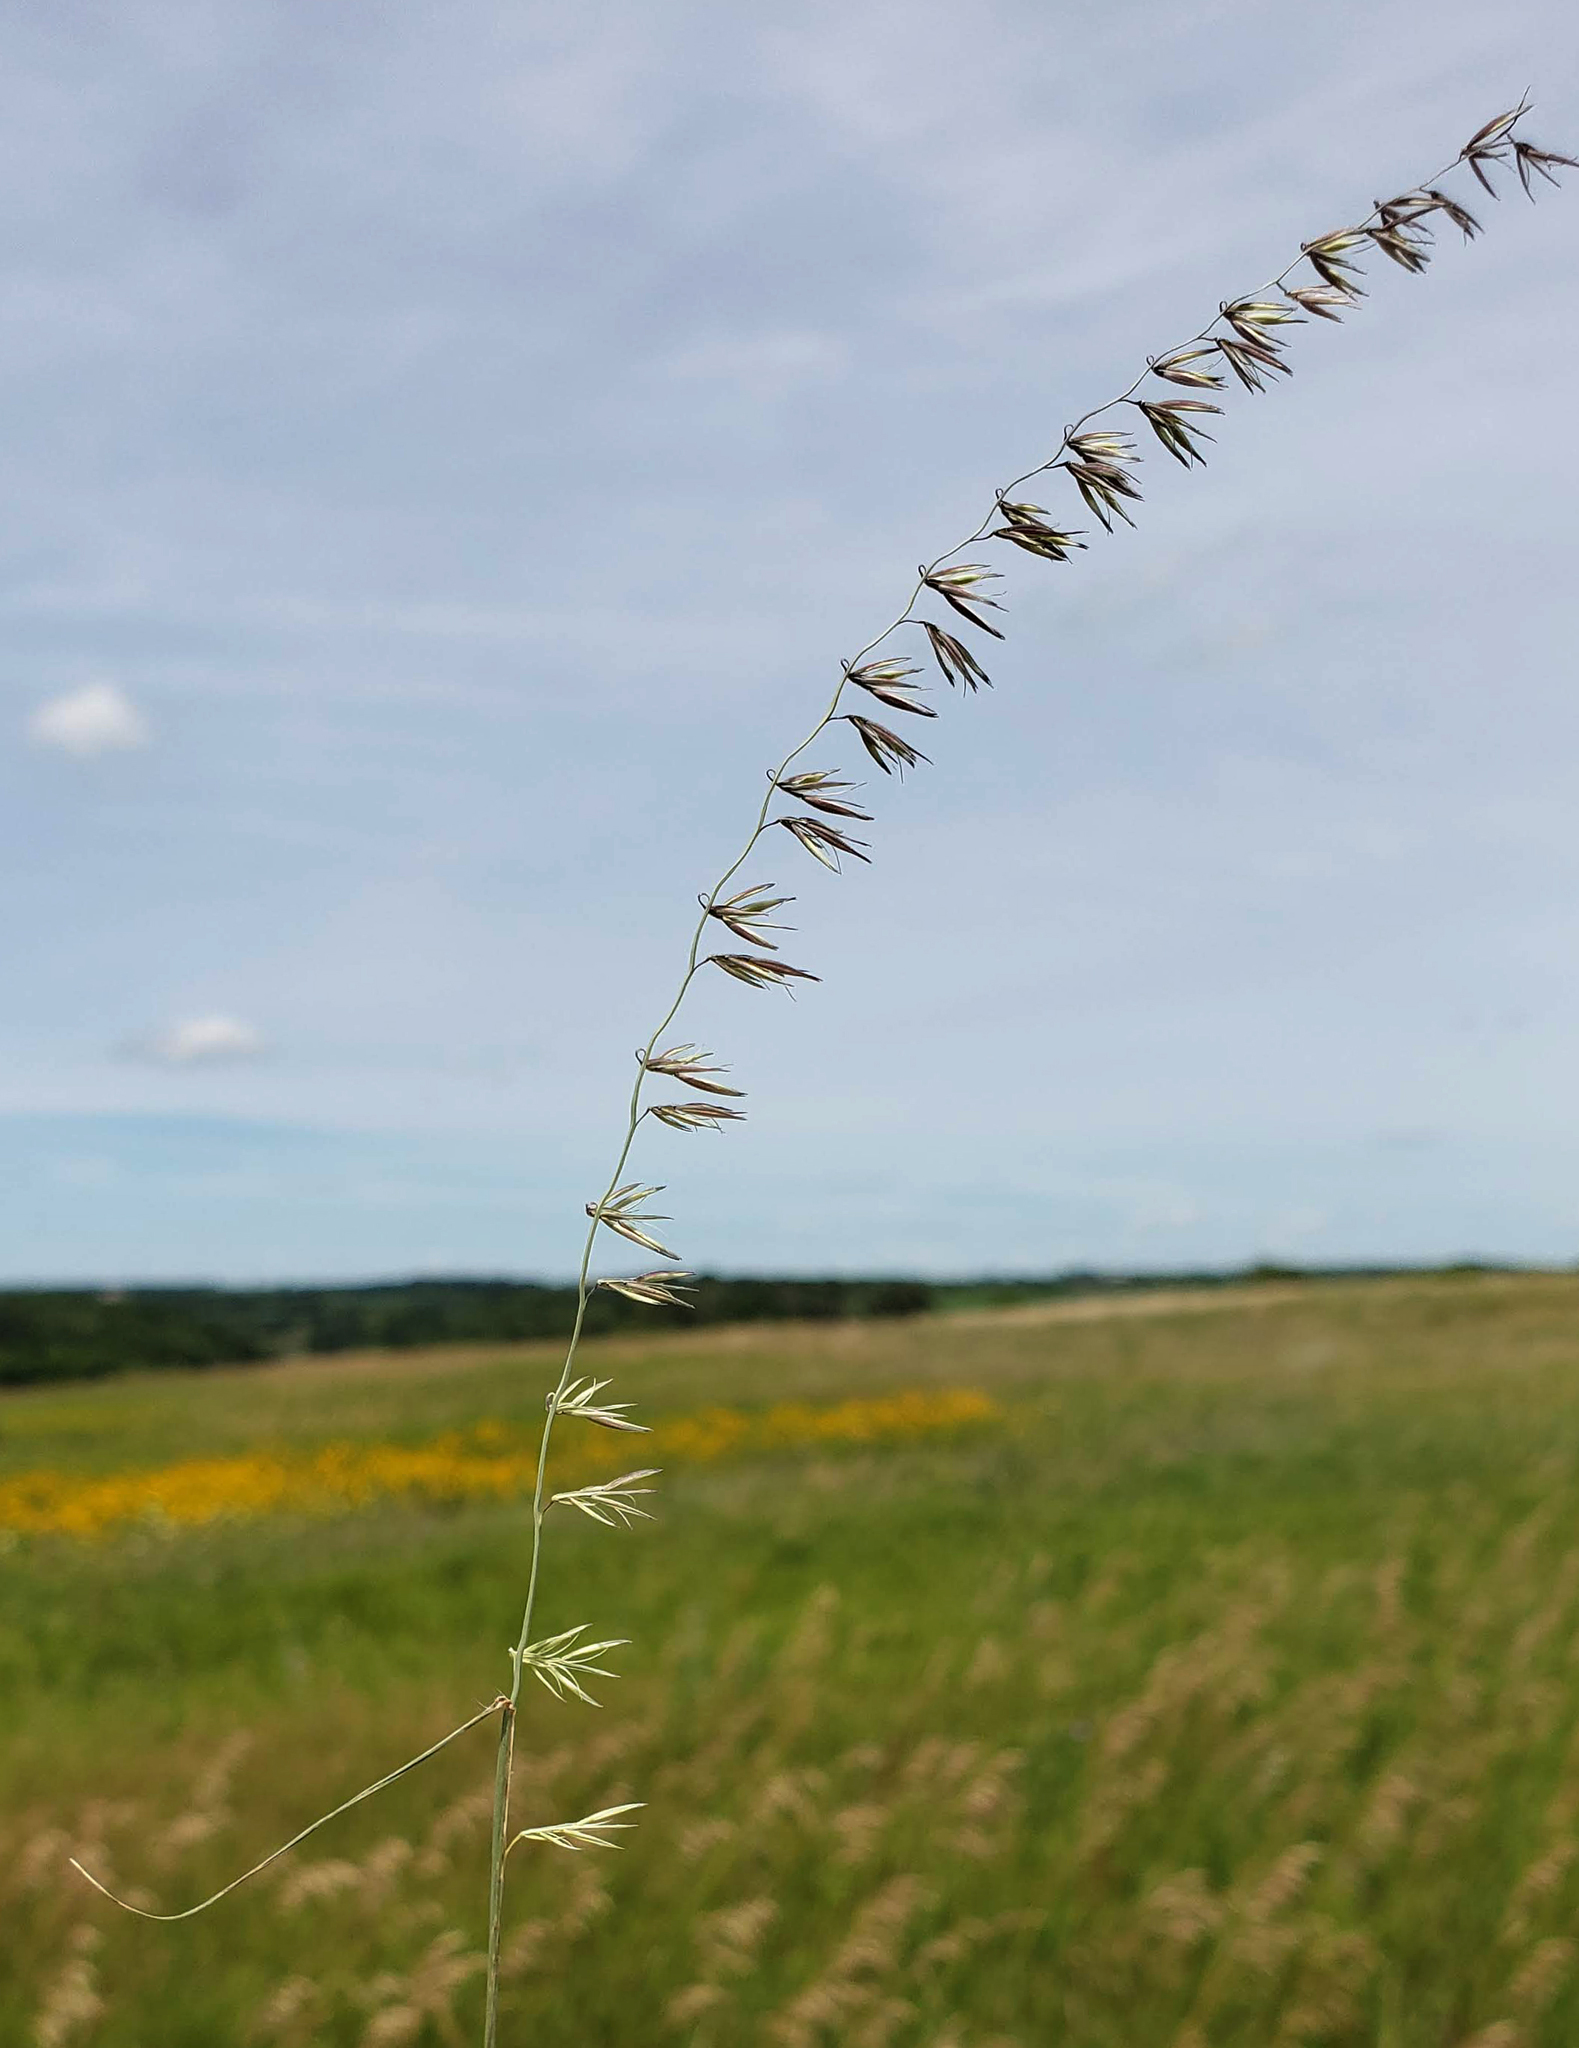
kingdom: Plantae
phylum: Tracheophyta
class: Liliopsida
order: Poales
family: Poaceae
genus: Bouteloua
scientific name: Bouteloua curtipendula
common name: Side-oats grama
